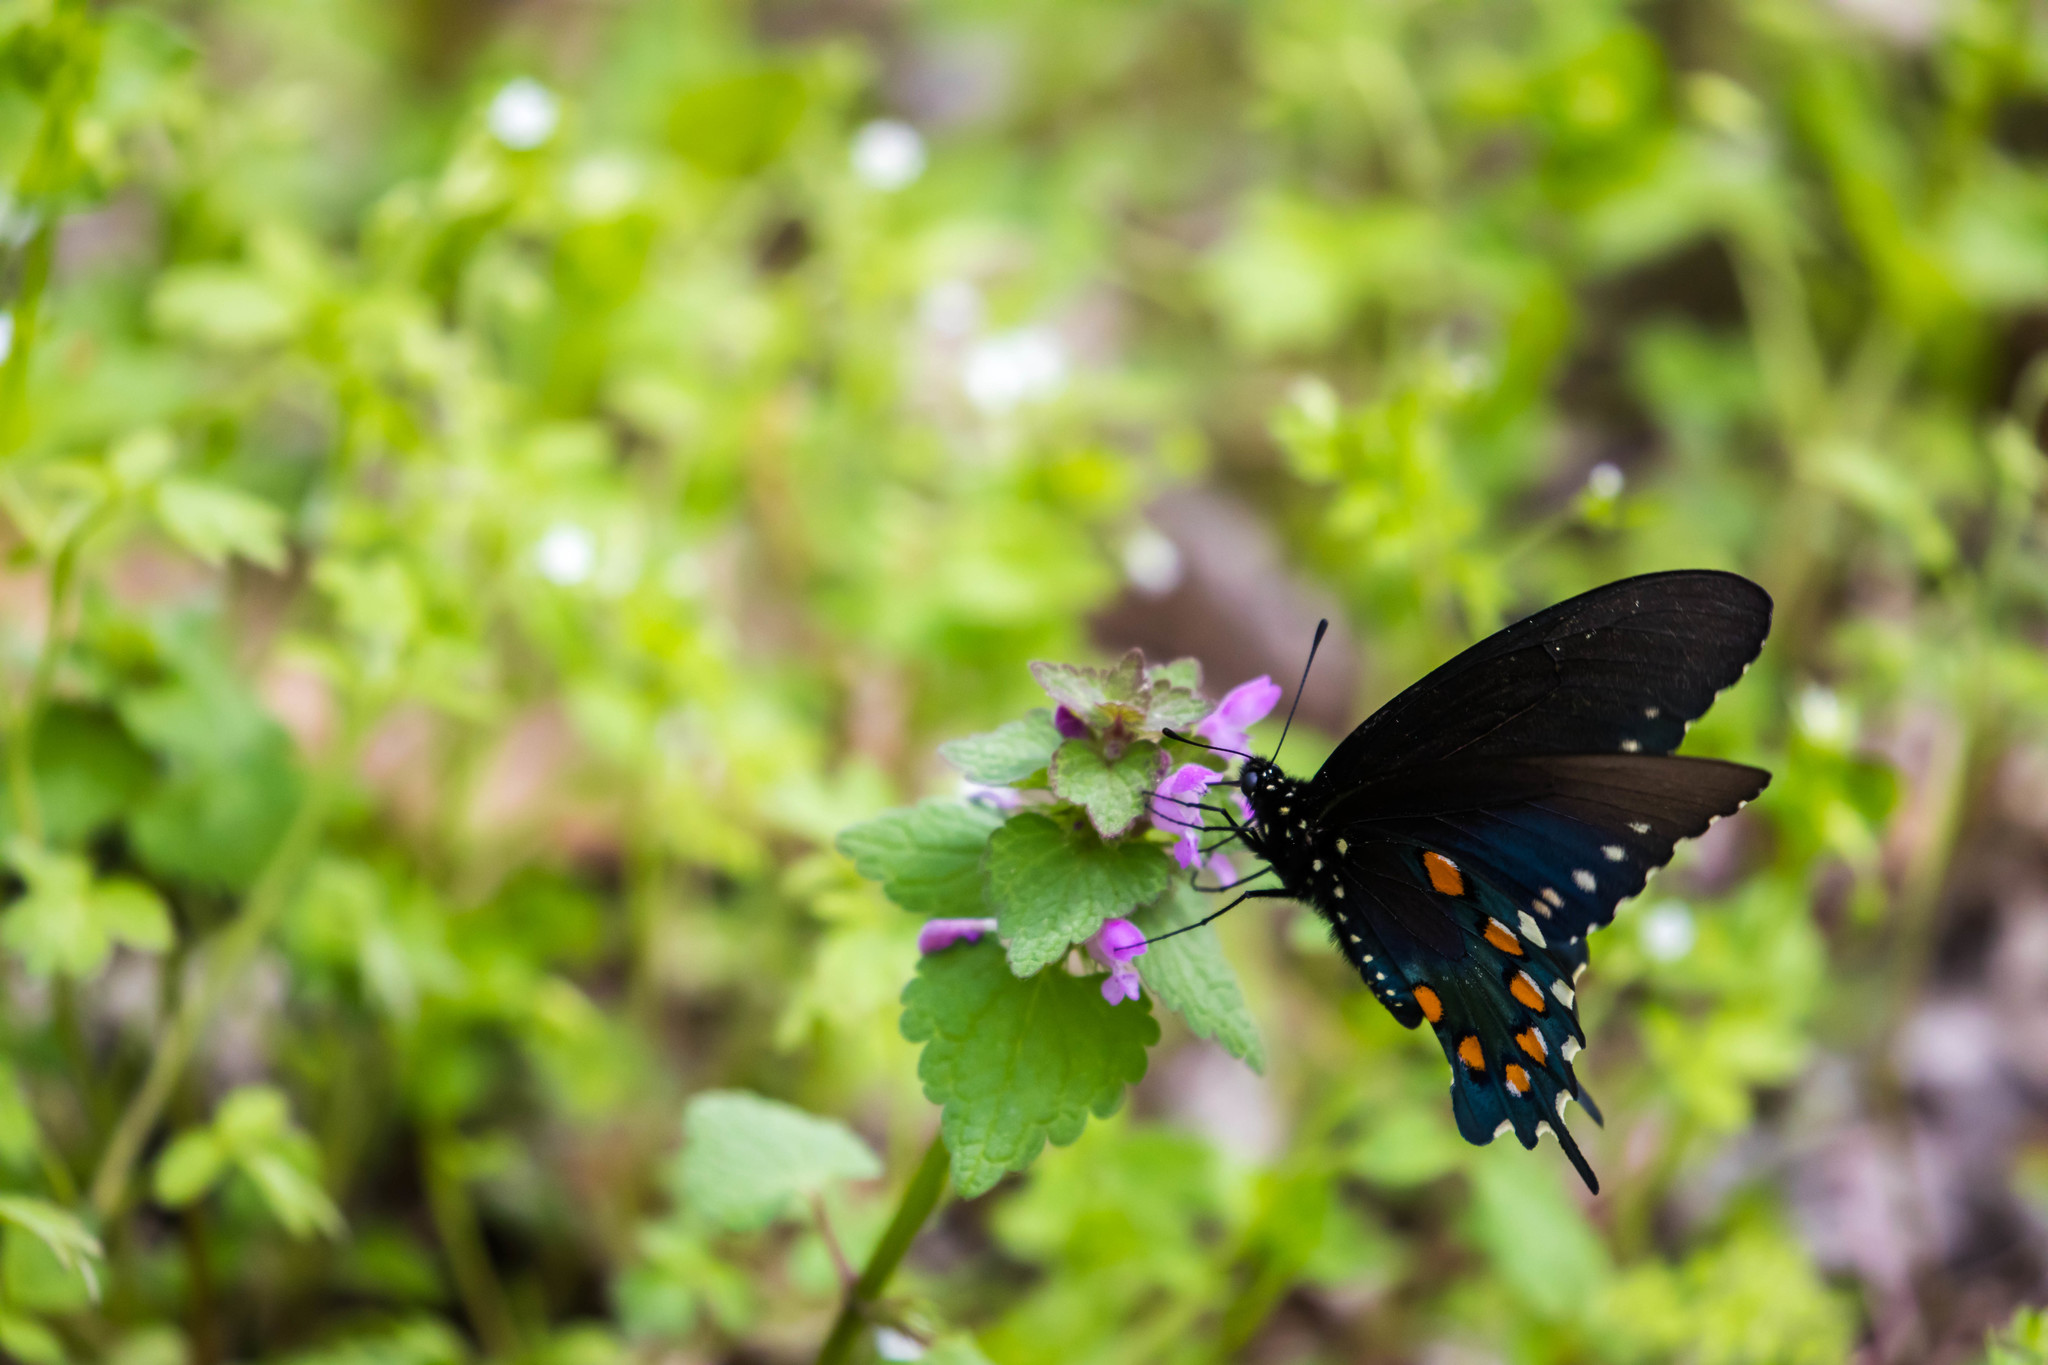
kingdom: Animalia
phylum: Arthropoda
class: Insecta
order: Lepidoptera
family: Papilionidae
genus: Battus
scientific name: Battus philenor
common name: Pipevine swallowtail
